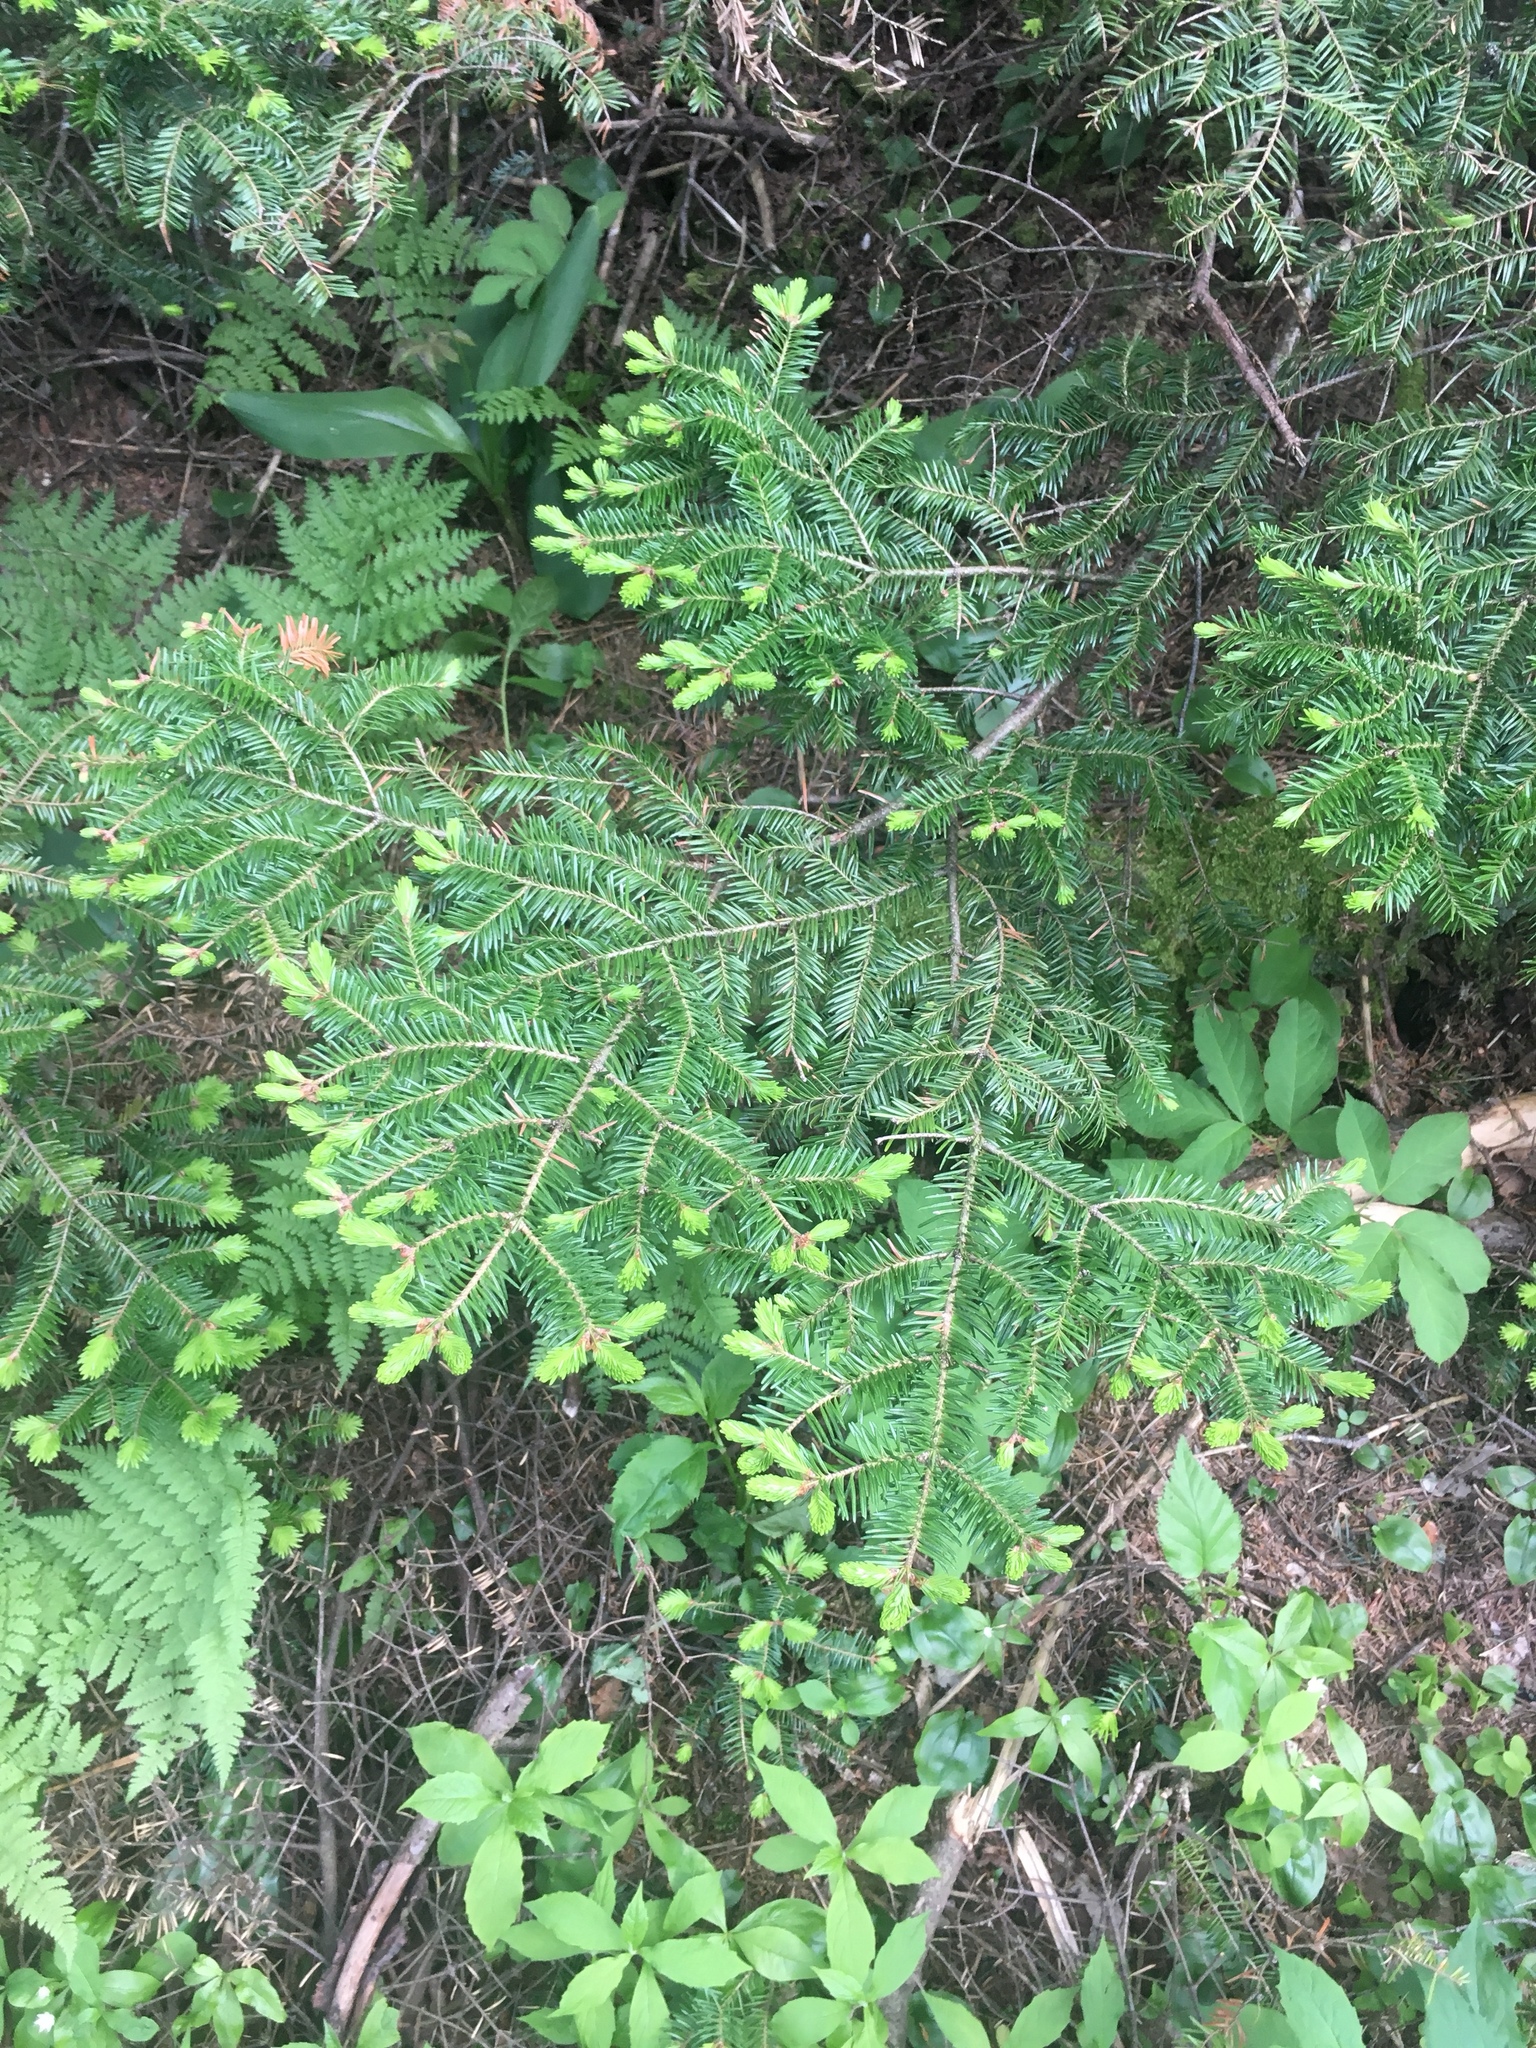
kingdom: Plantae
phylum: Tracheophyta
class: Pinopsida
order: Pinales
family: Pinaceae
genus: Abies
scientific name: Abies balsamea
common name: Balsam fir
